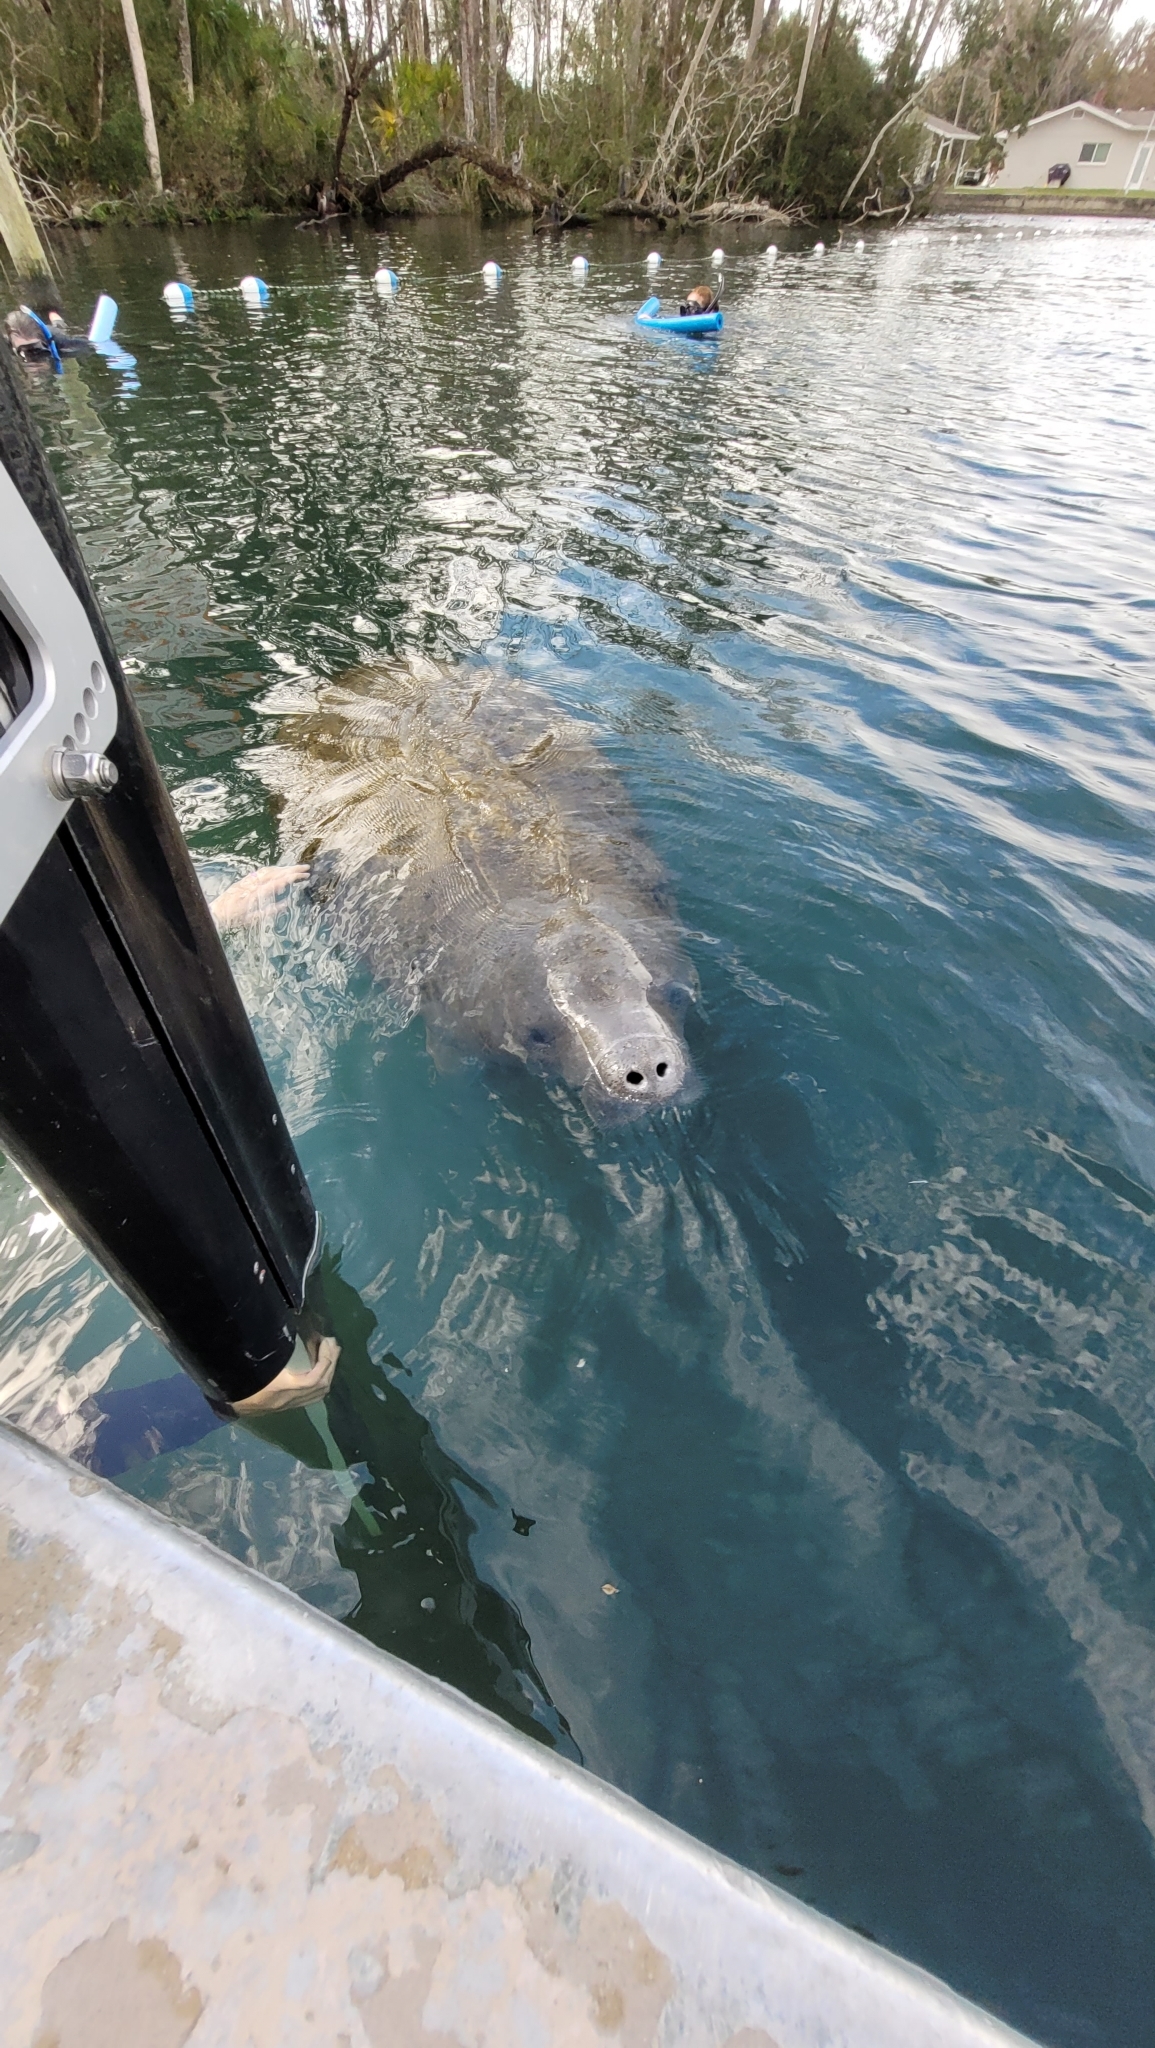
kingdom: Animalia
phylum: Chordata
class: Mammalia
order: Sirenia
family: Trichechidae
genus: Trichechus
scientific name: Trichechus manatus
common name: West indian manatee
